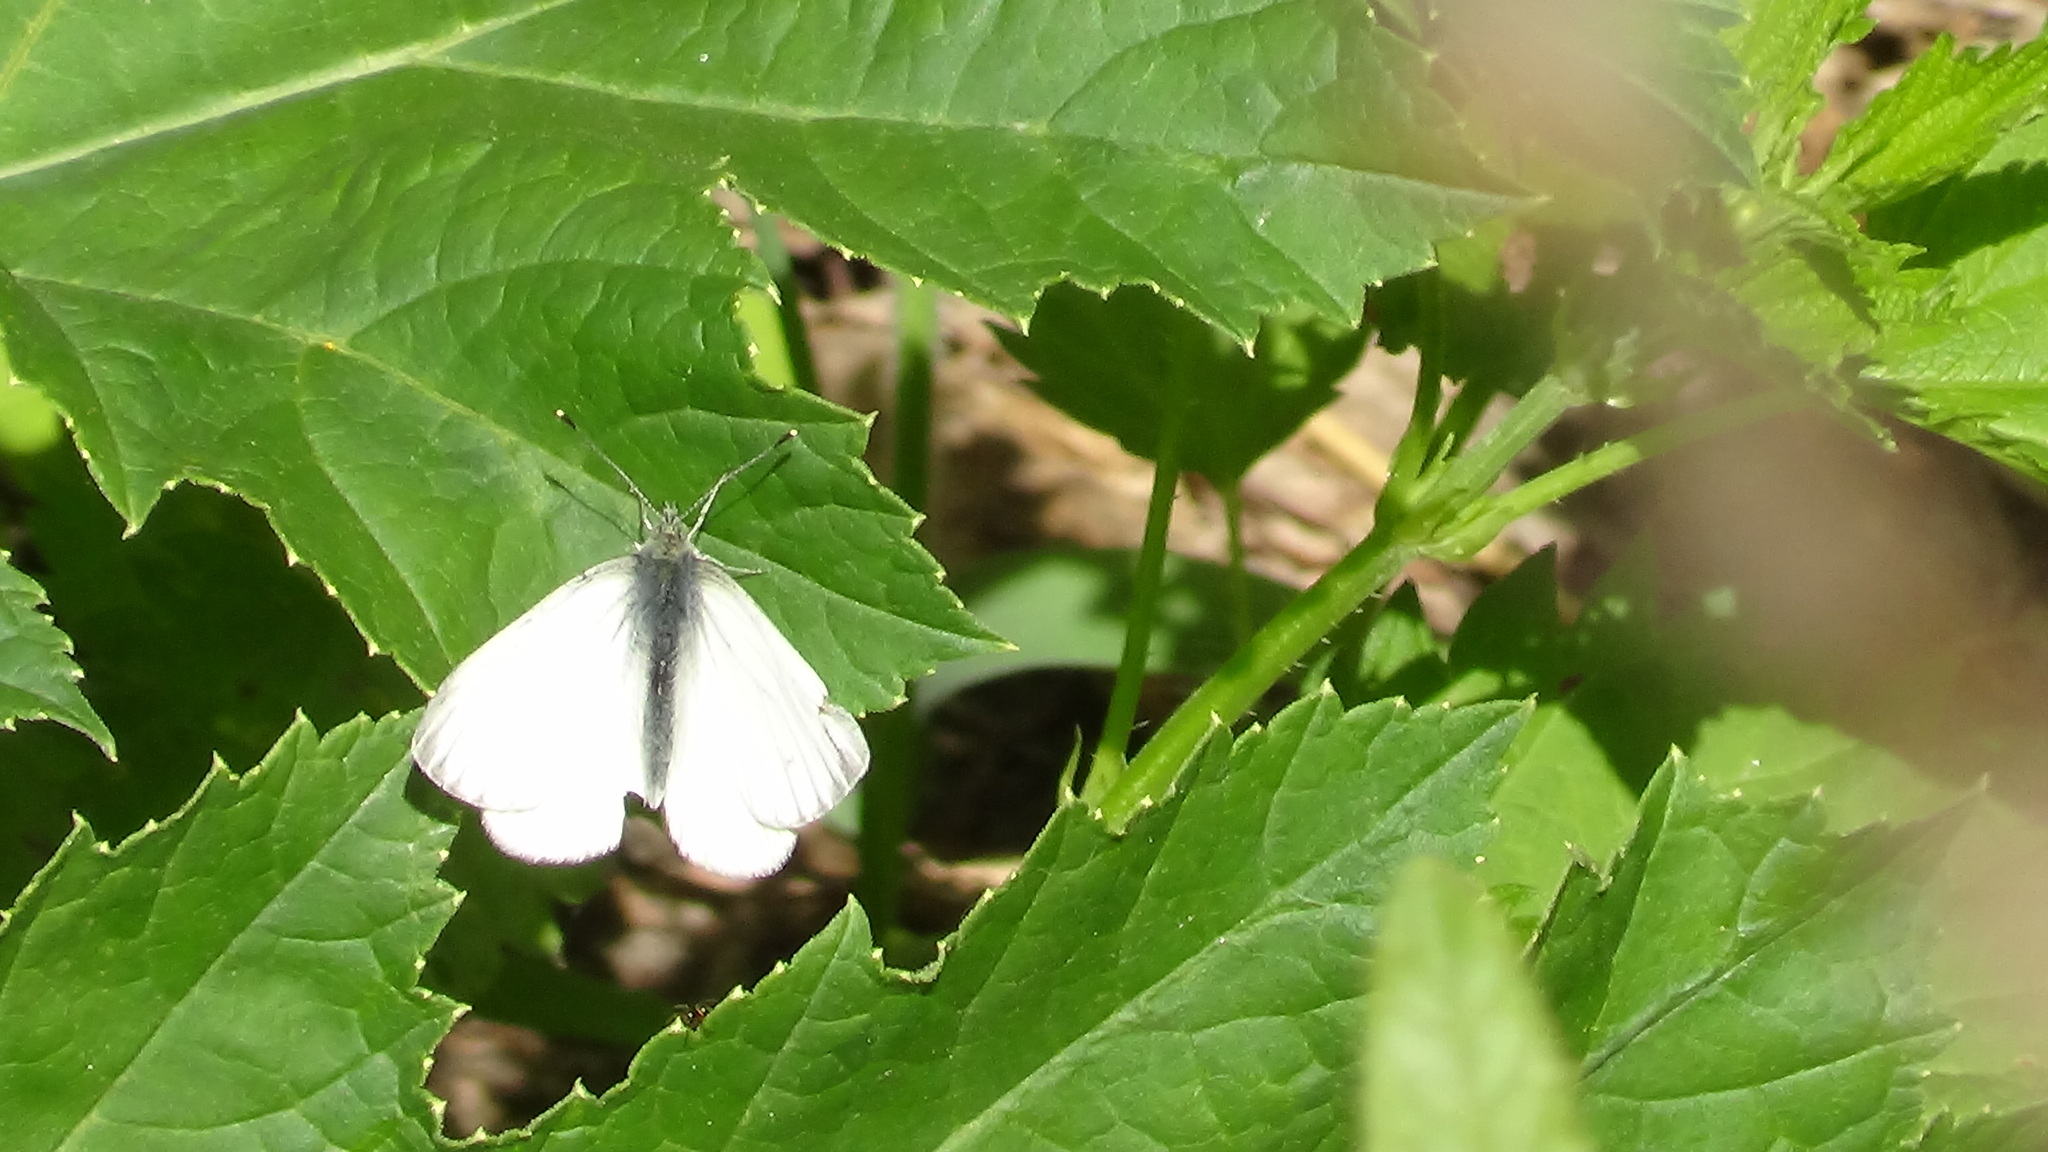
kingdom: Animalia
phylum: Arthropoda
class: Insecta
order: Lepidoptera
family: Pieridae
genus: Pieris
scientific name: Pieris napi
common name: Green-veined white
